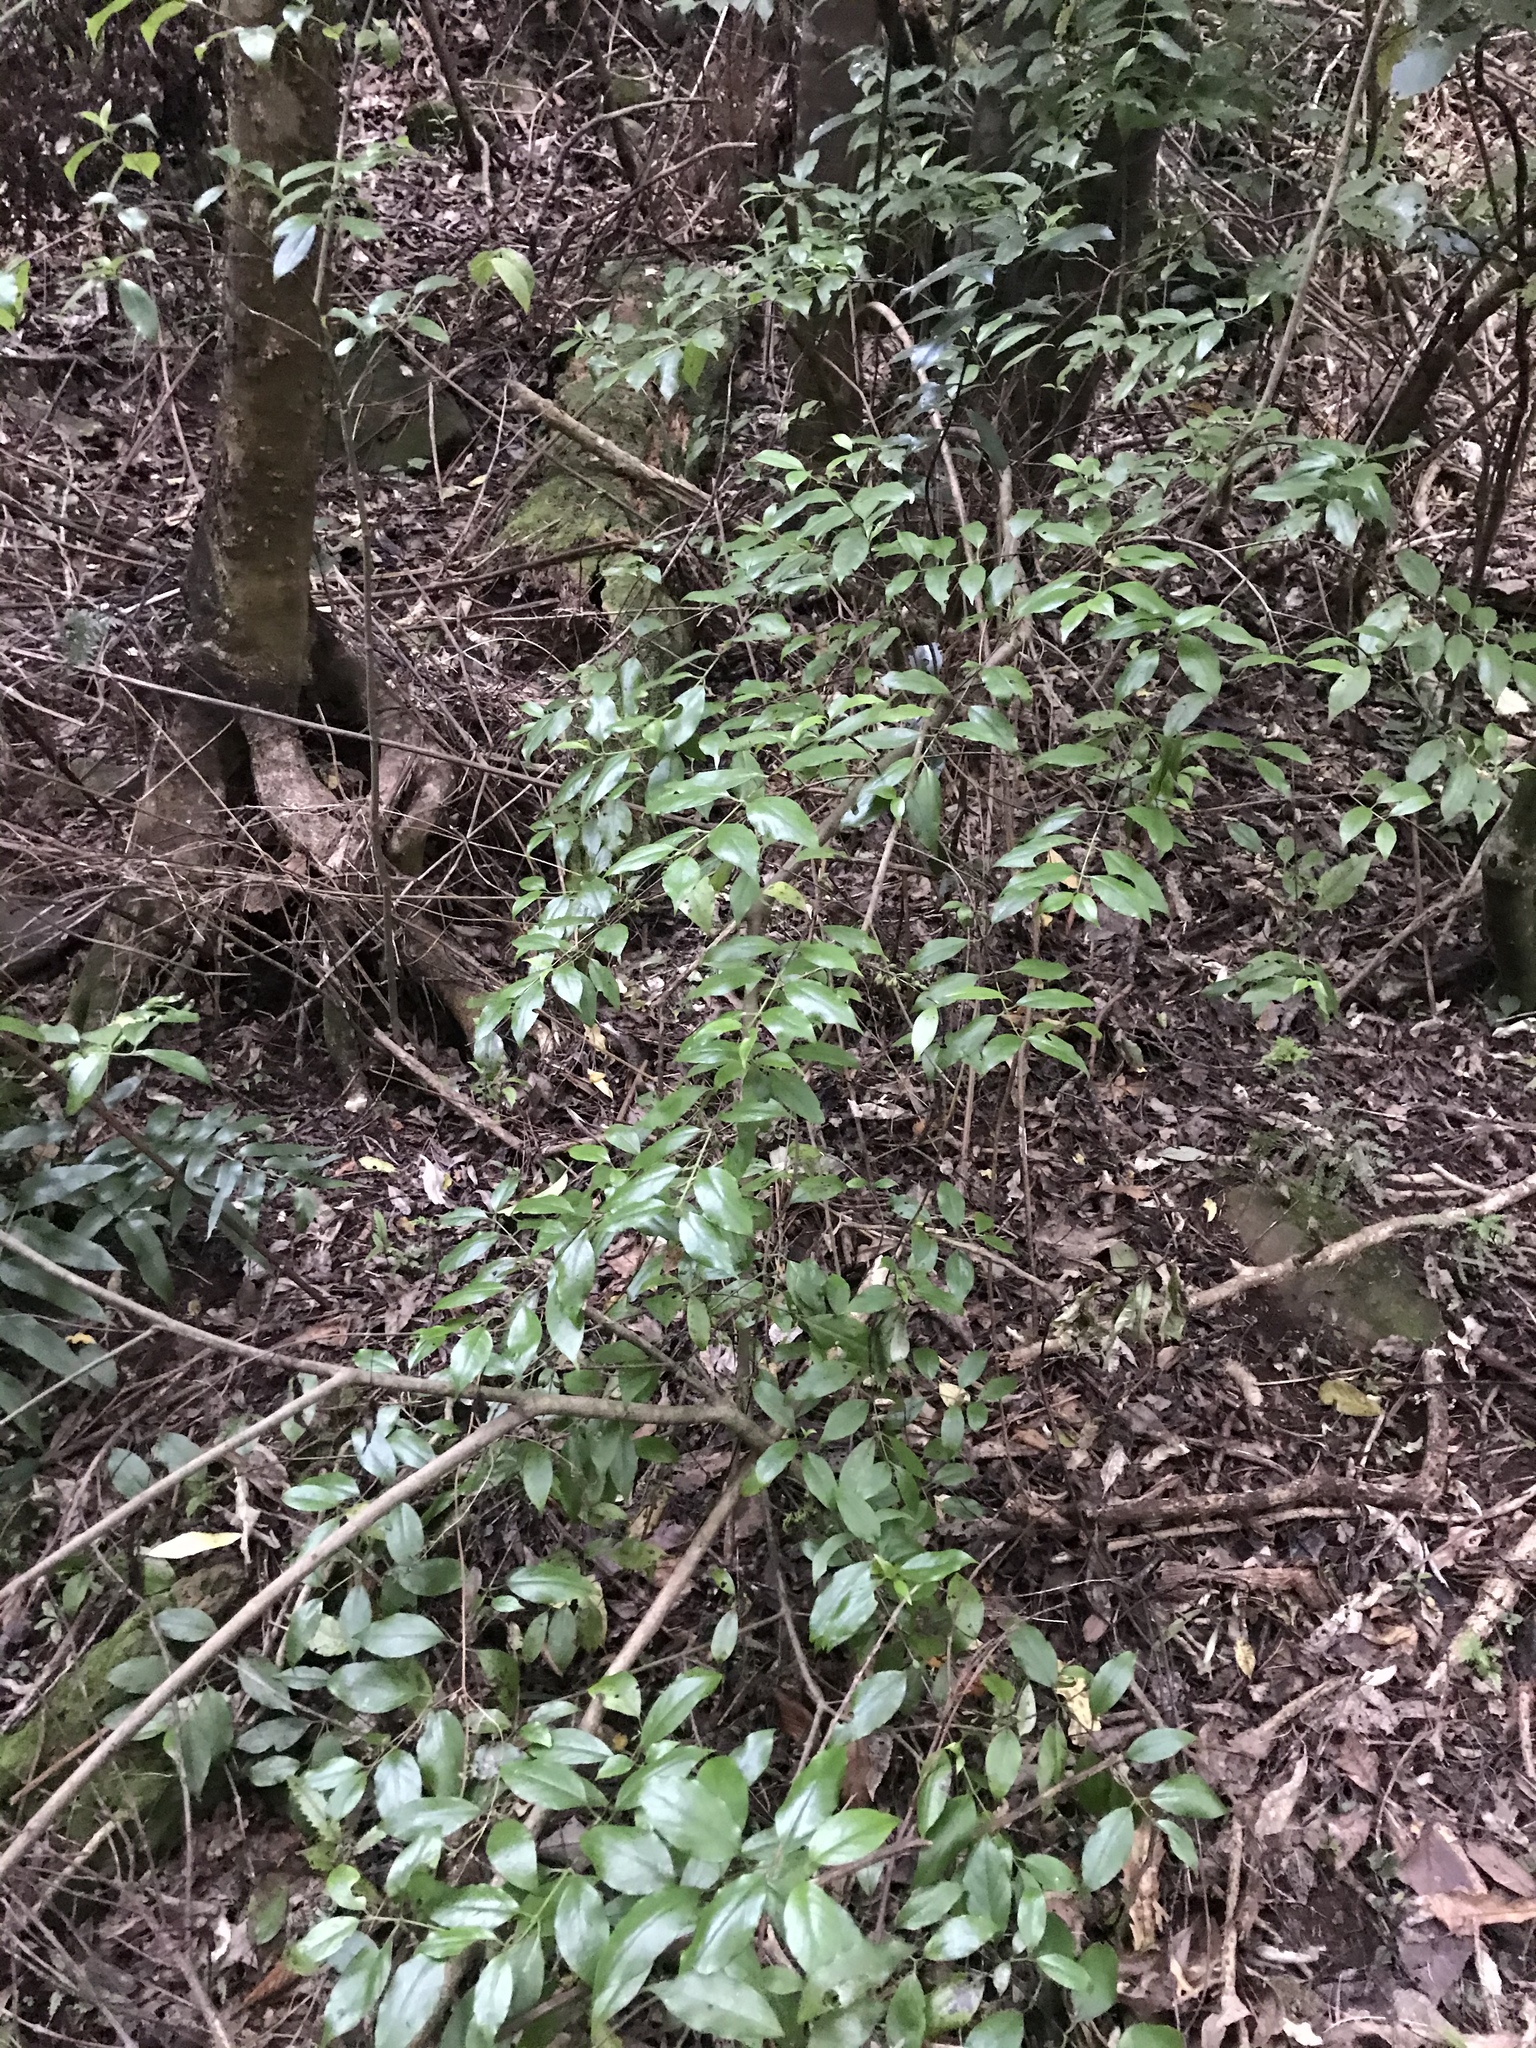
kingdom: Plantae
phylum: Tracheophyta
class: Magnoliopsida
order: Gentianales
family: Loganiaceae
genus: Geniostoma
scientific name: Geniostoma ligustrifolium
